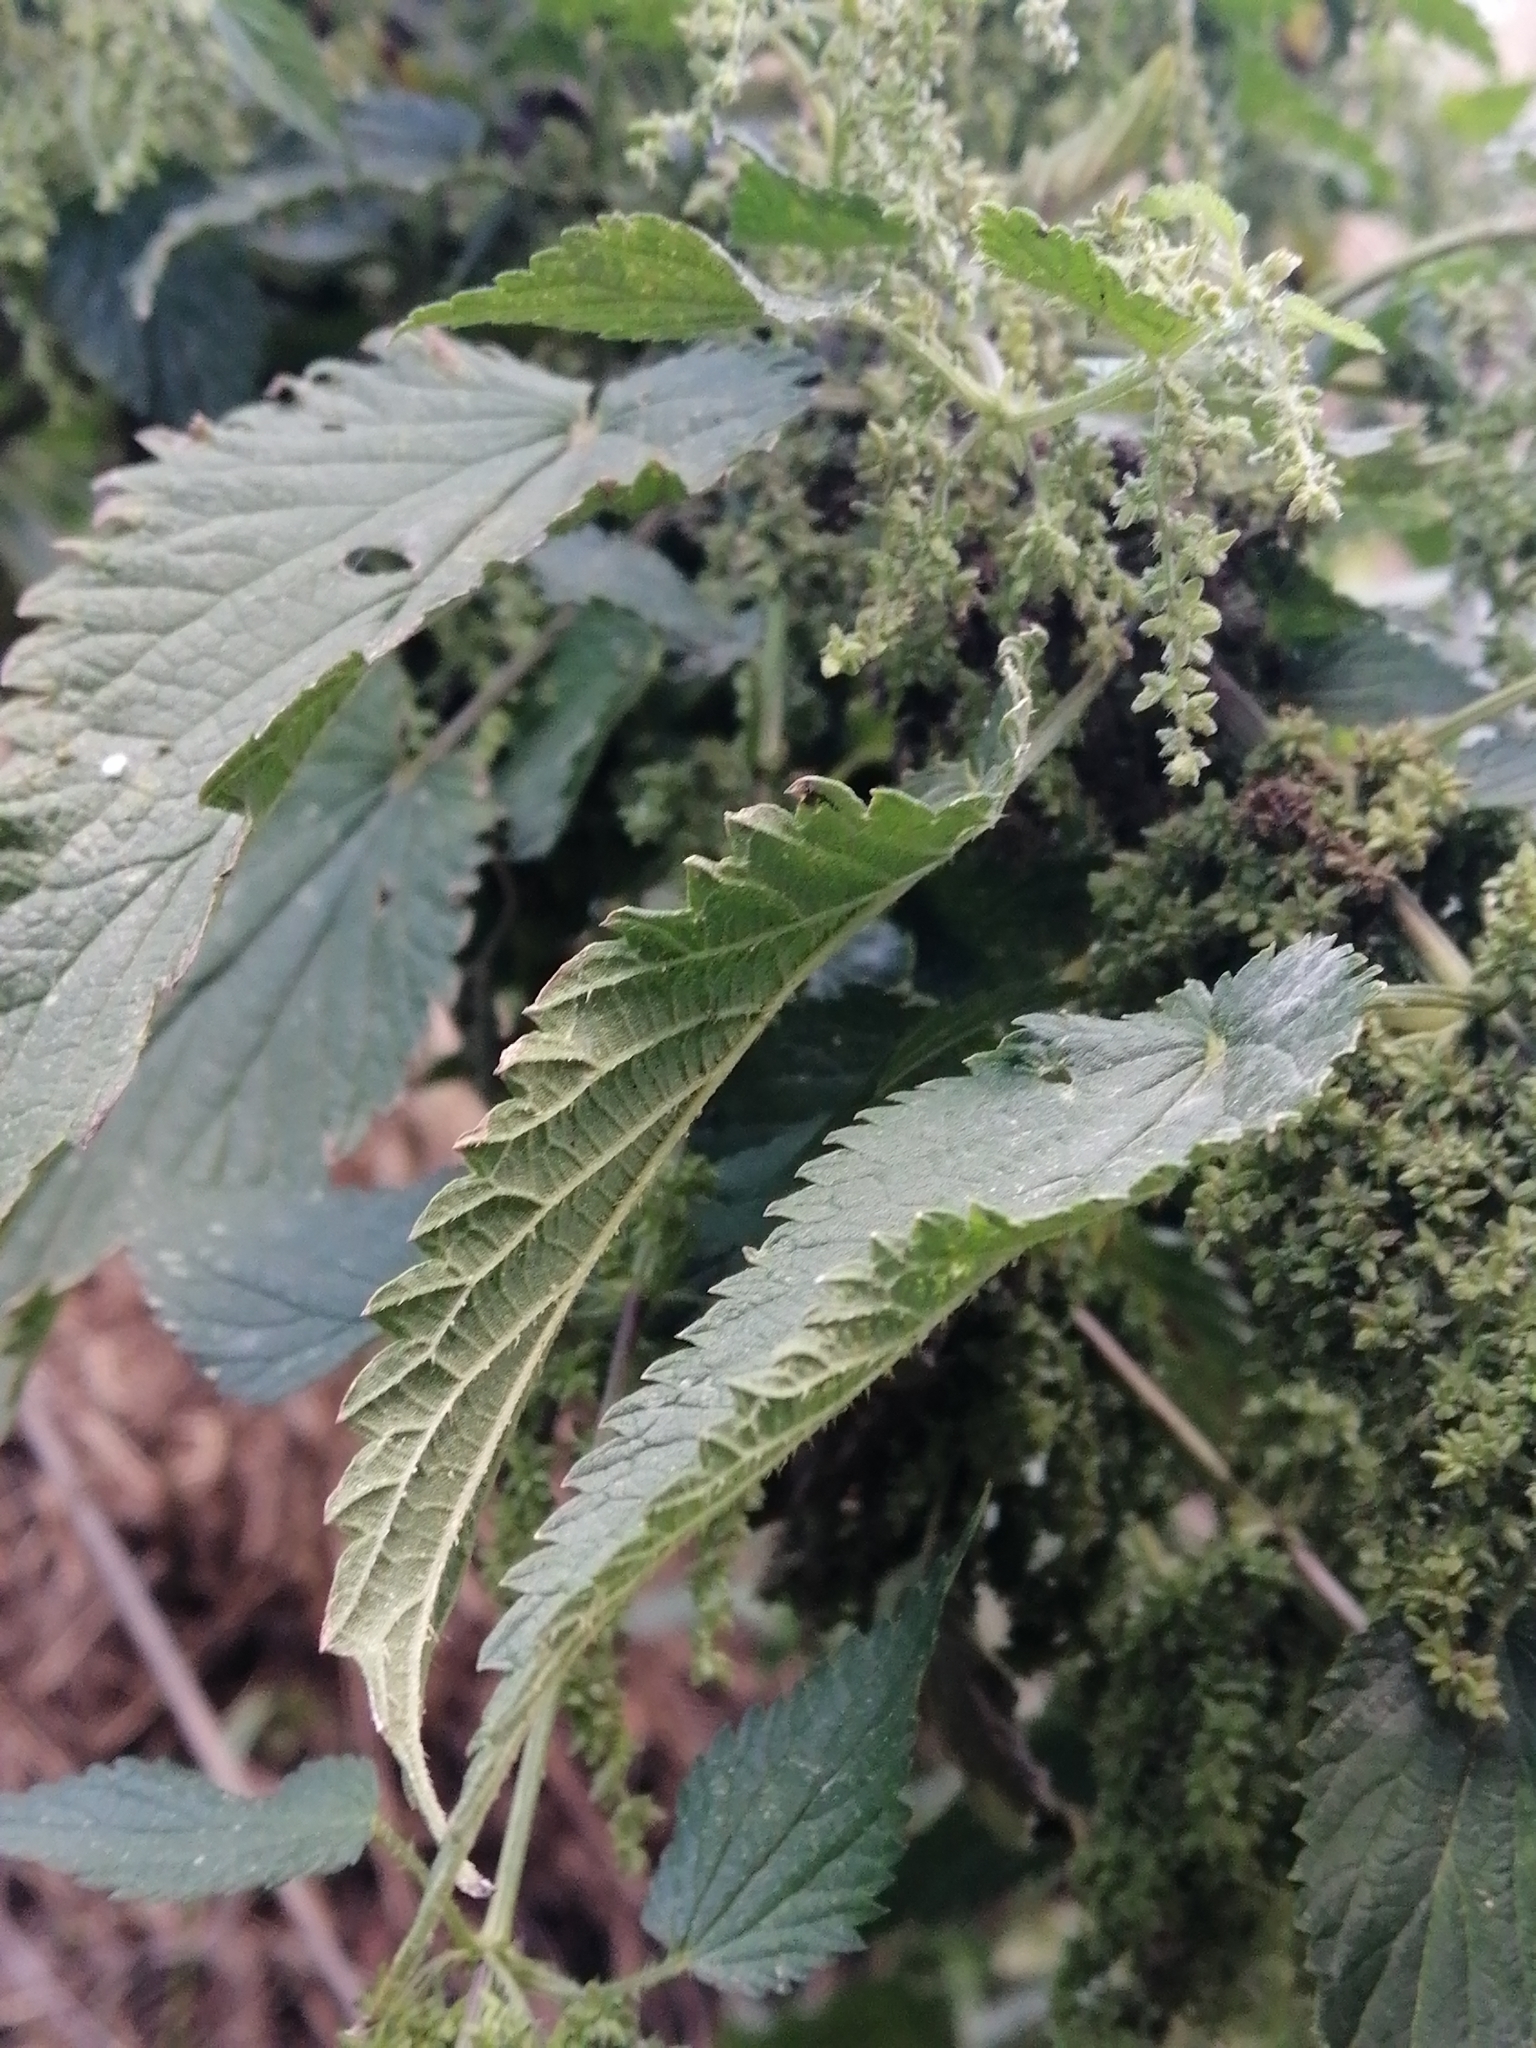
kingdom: Plantae
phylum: Tracheophyta
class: Magnoliopsida
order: Rosales
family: Urticaceae
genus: Urtica
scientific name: Urtica dioica
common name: Common nettle
